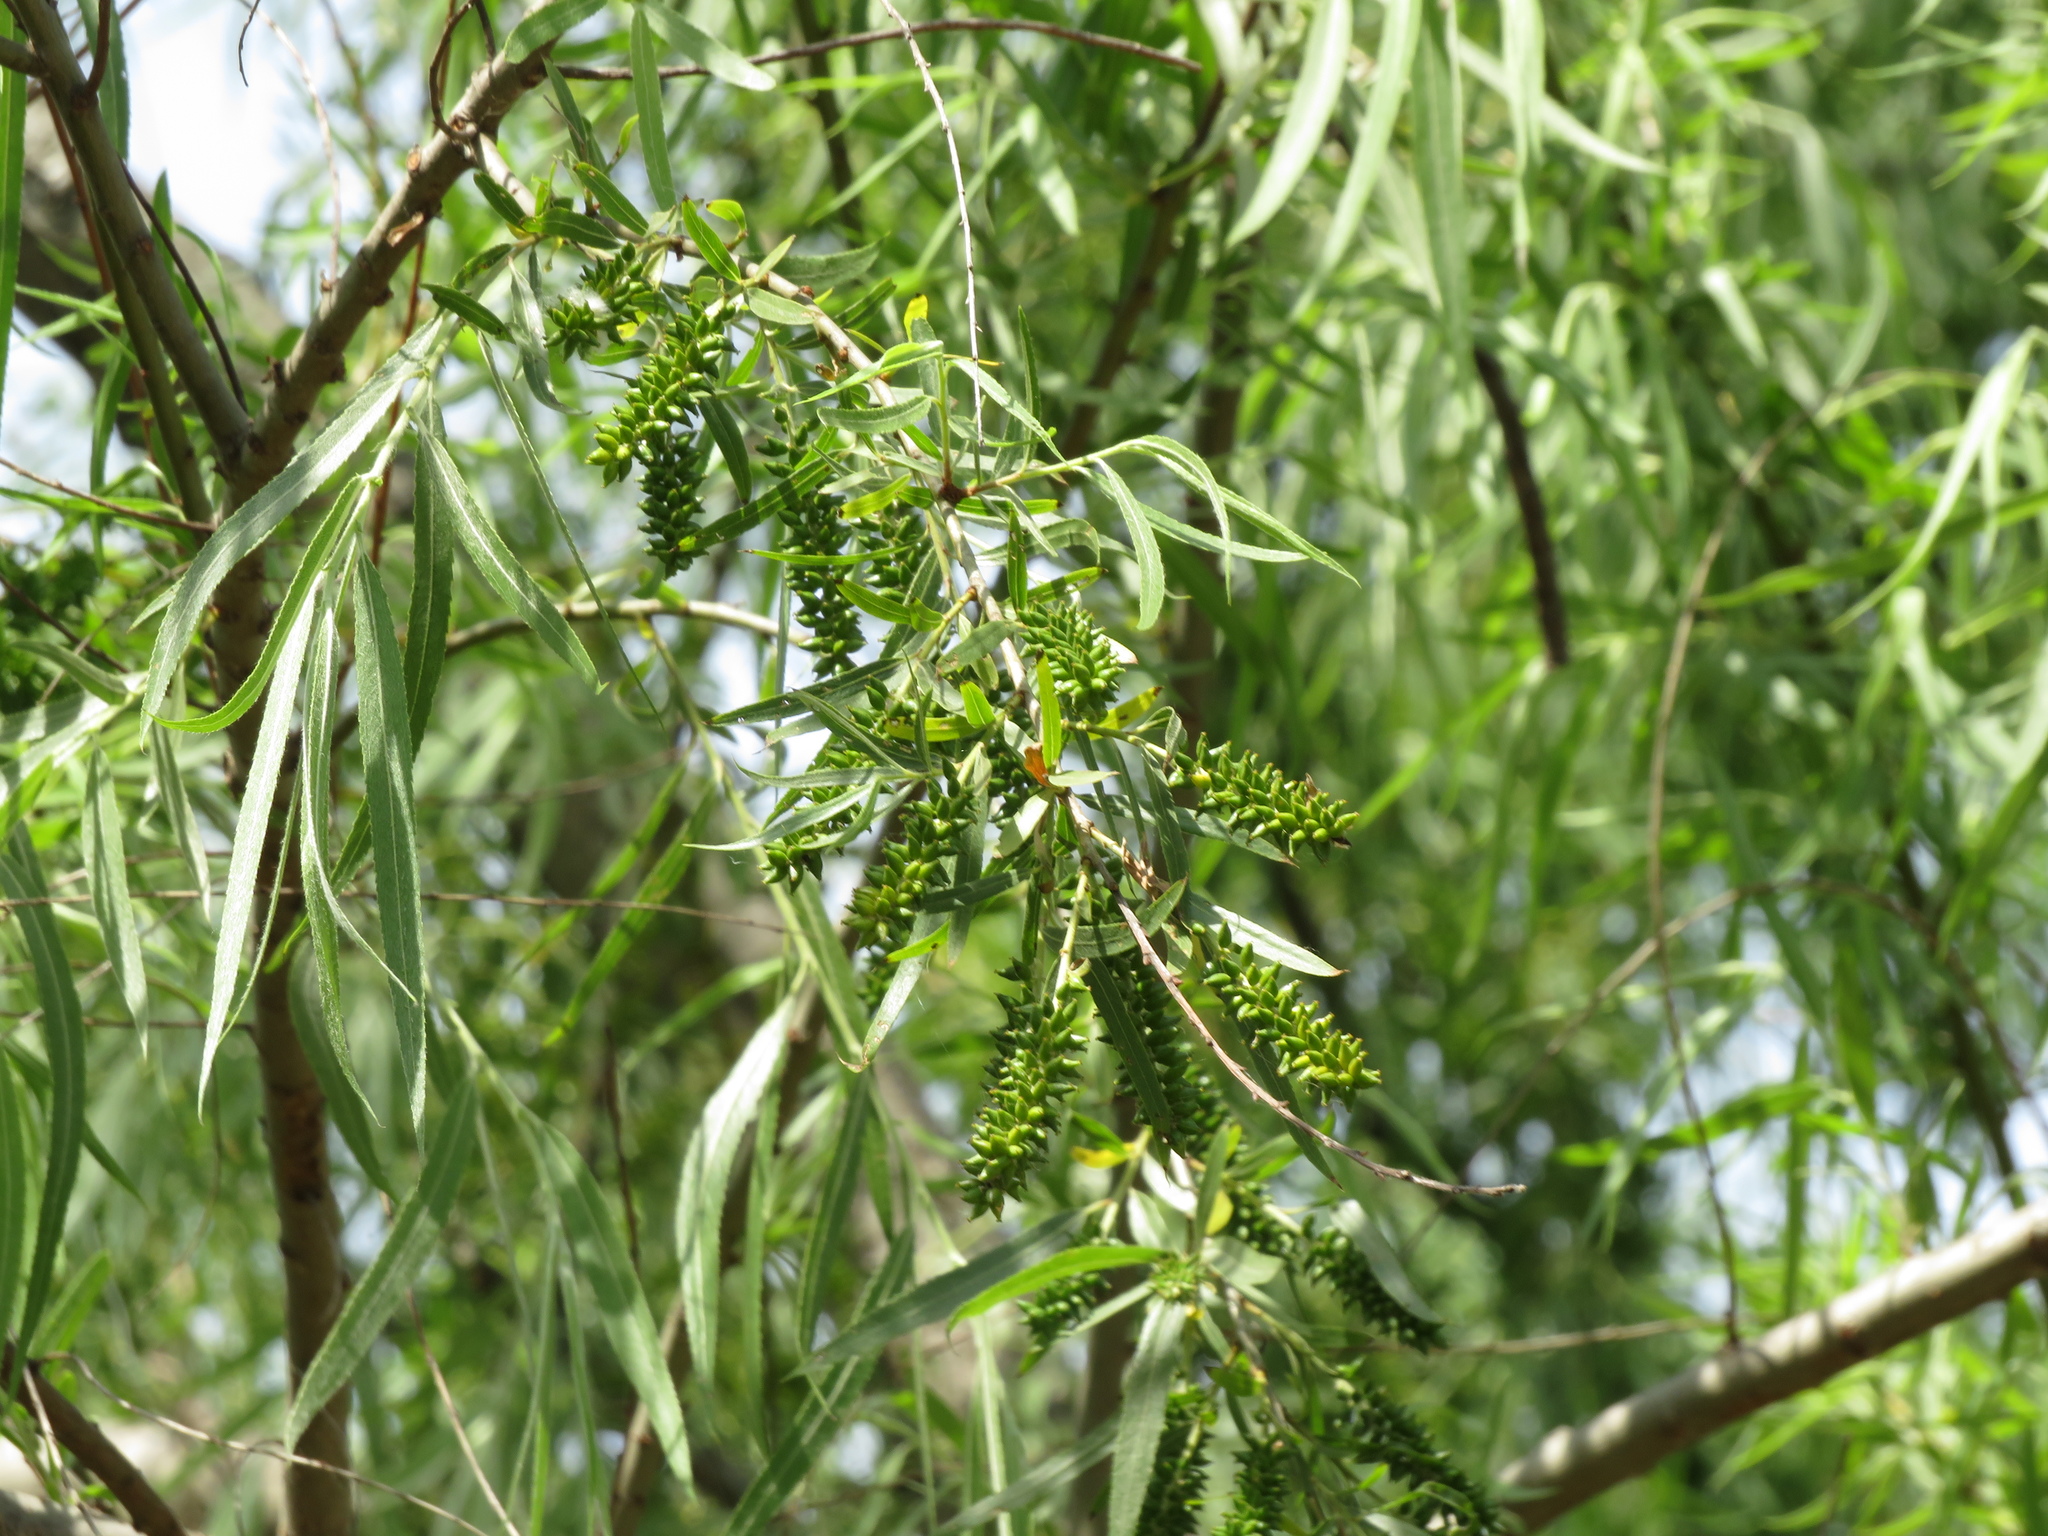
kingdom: Plantae
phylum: Tracheophyta
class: Magnoliopsida
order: Malpighiales
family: Salicaceae
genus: Salix
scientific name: Salix humboldtiana
